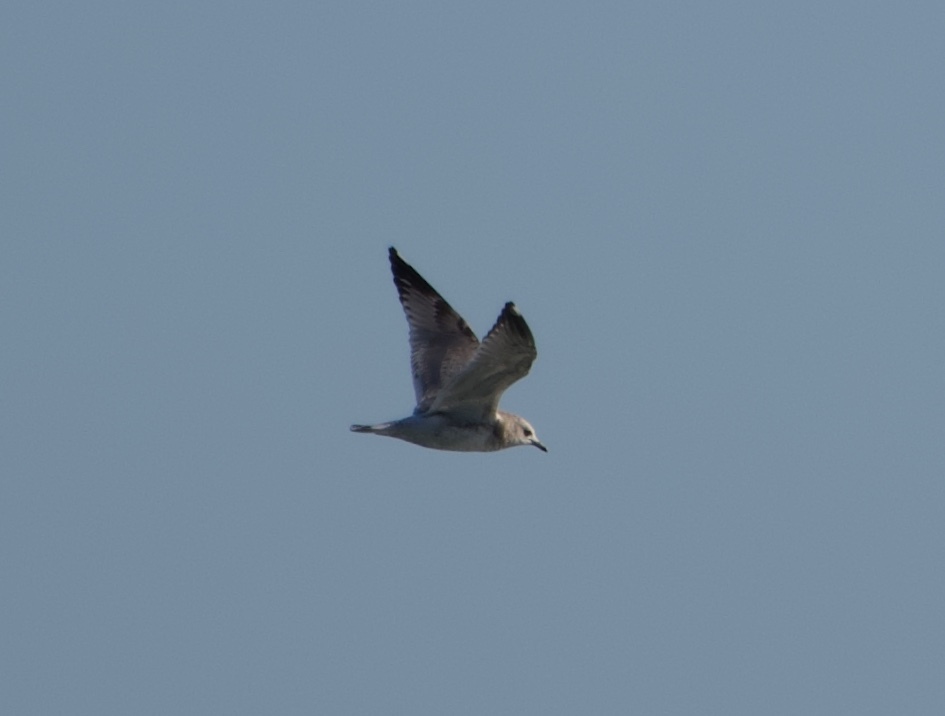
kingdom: Animalia
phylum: Chordata
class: Aves
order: Charadriiformes
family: Laridae
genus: Larus
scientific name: Larus brachyrhynchus
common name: Short-billed gull
